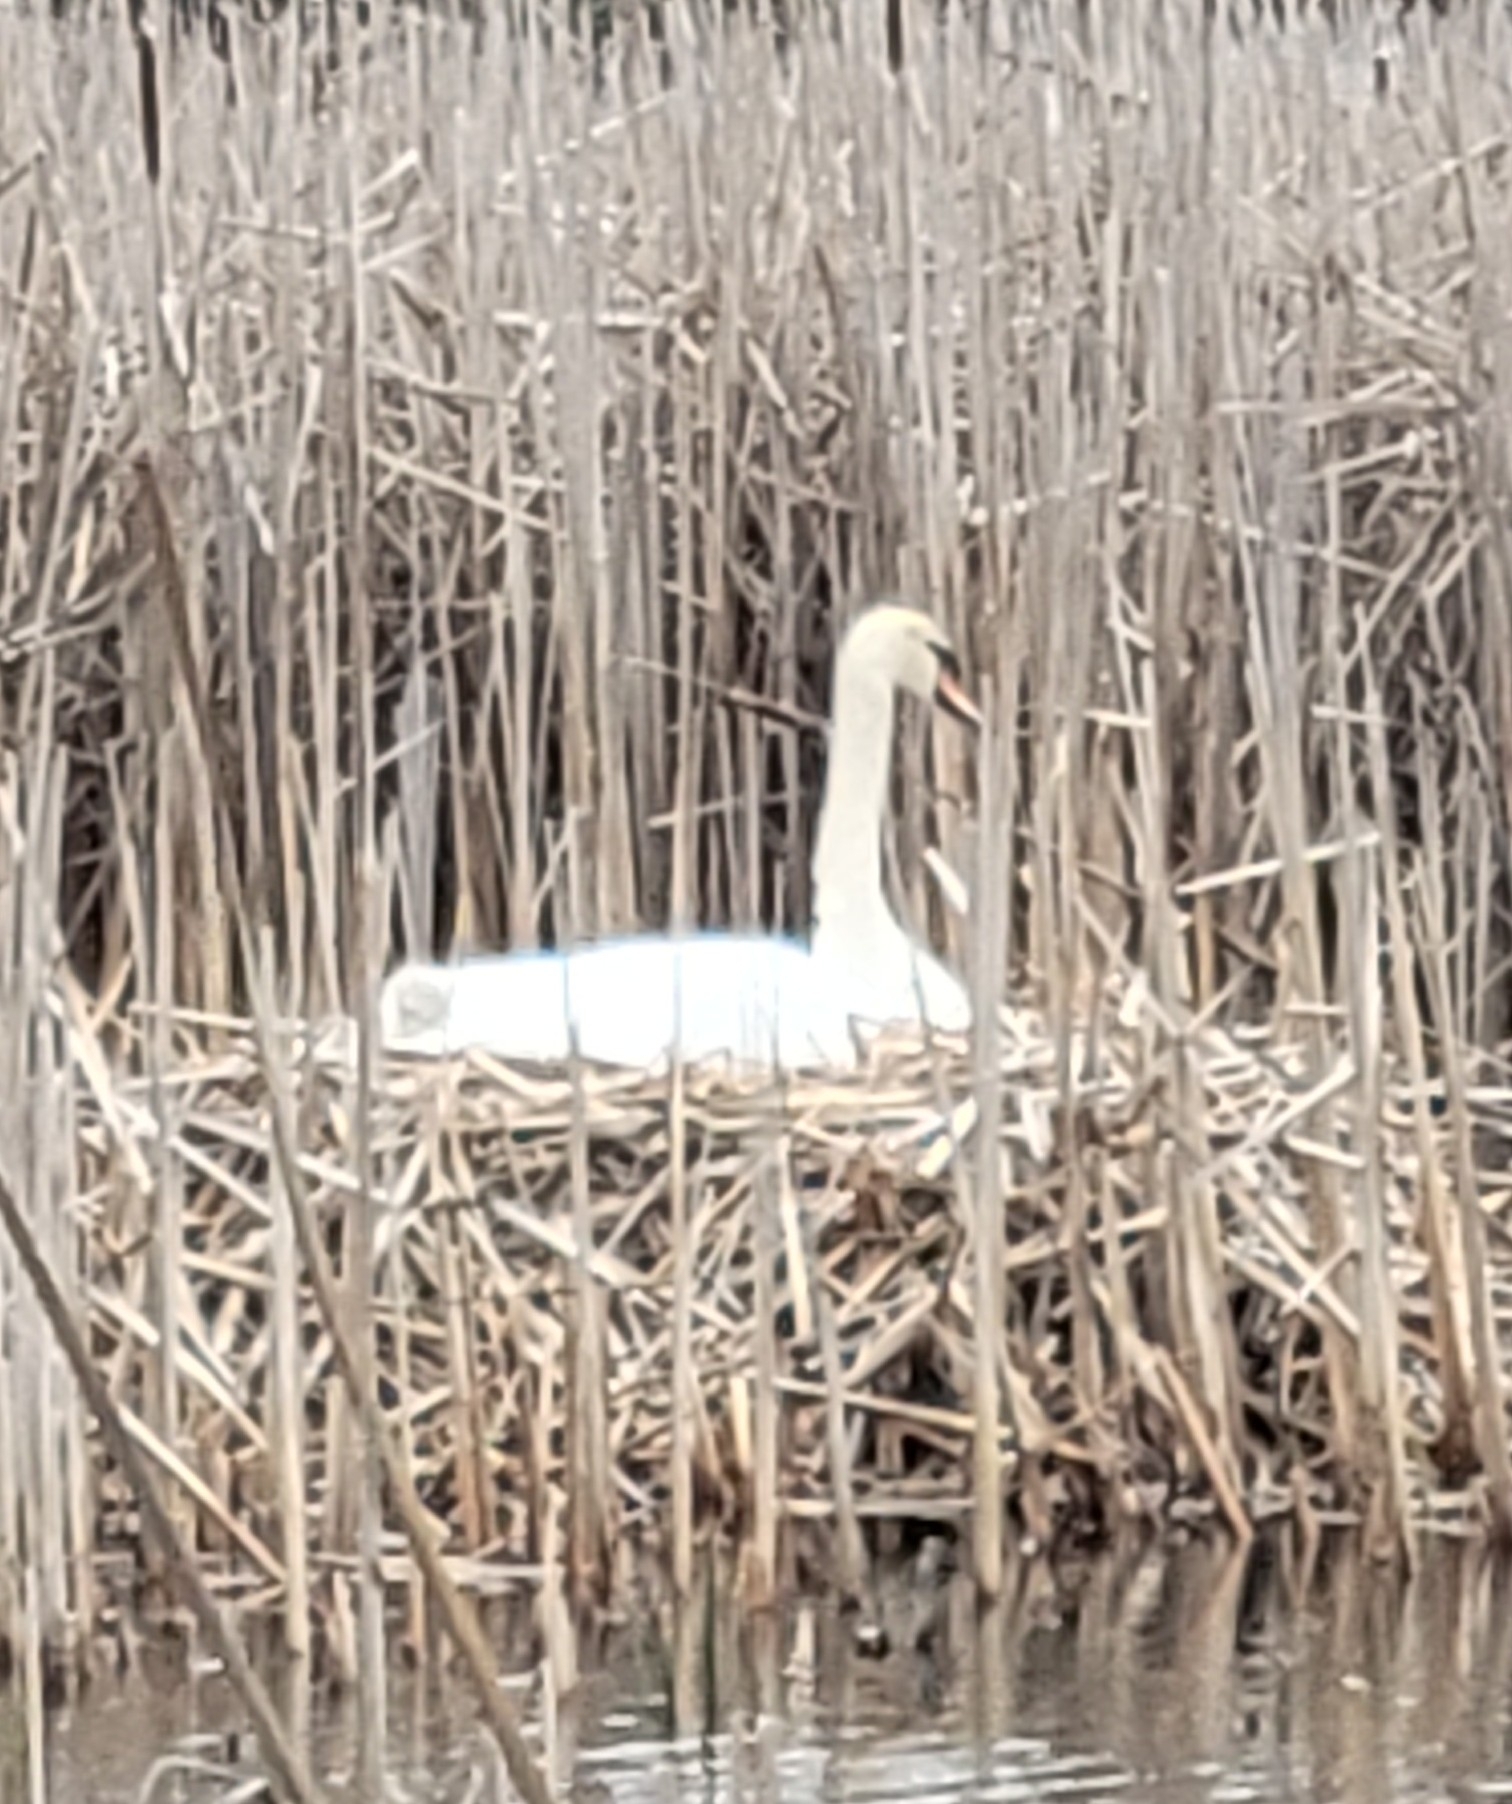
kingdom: Animalia
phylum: Chordata
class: Aves
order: Anseriformes
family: Anatidae
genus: Cygnus
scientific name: Cygnus olor
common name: Mute swan
